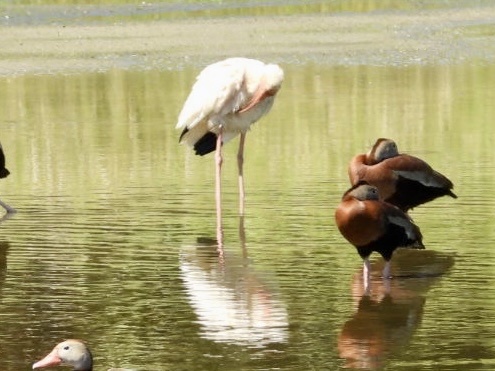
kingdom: Animalia
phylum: Chordata
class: Aves
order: Pelecaniformes
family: Threskiornithidae
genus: Eudocimus
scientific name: Eudocimus albus
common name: White ibis
